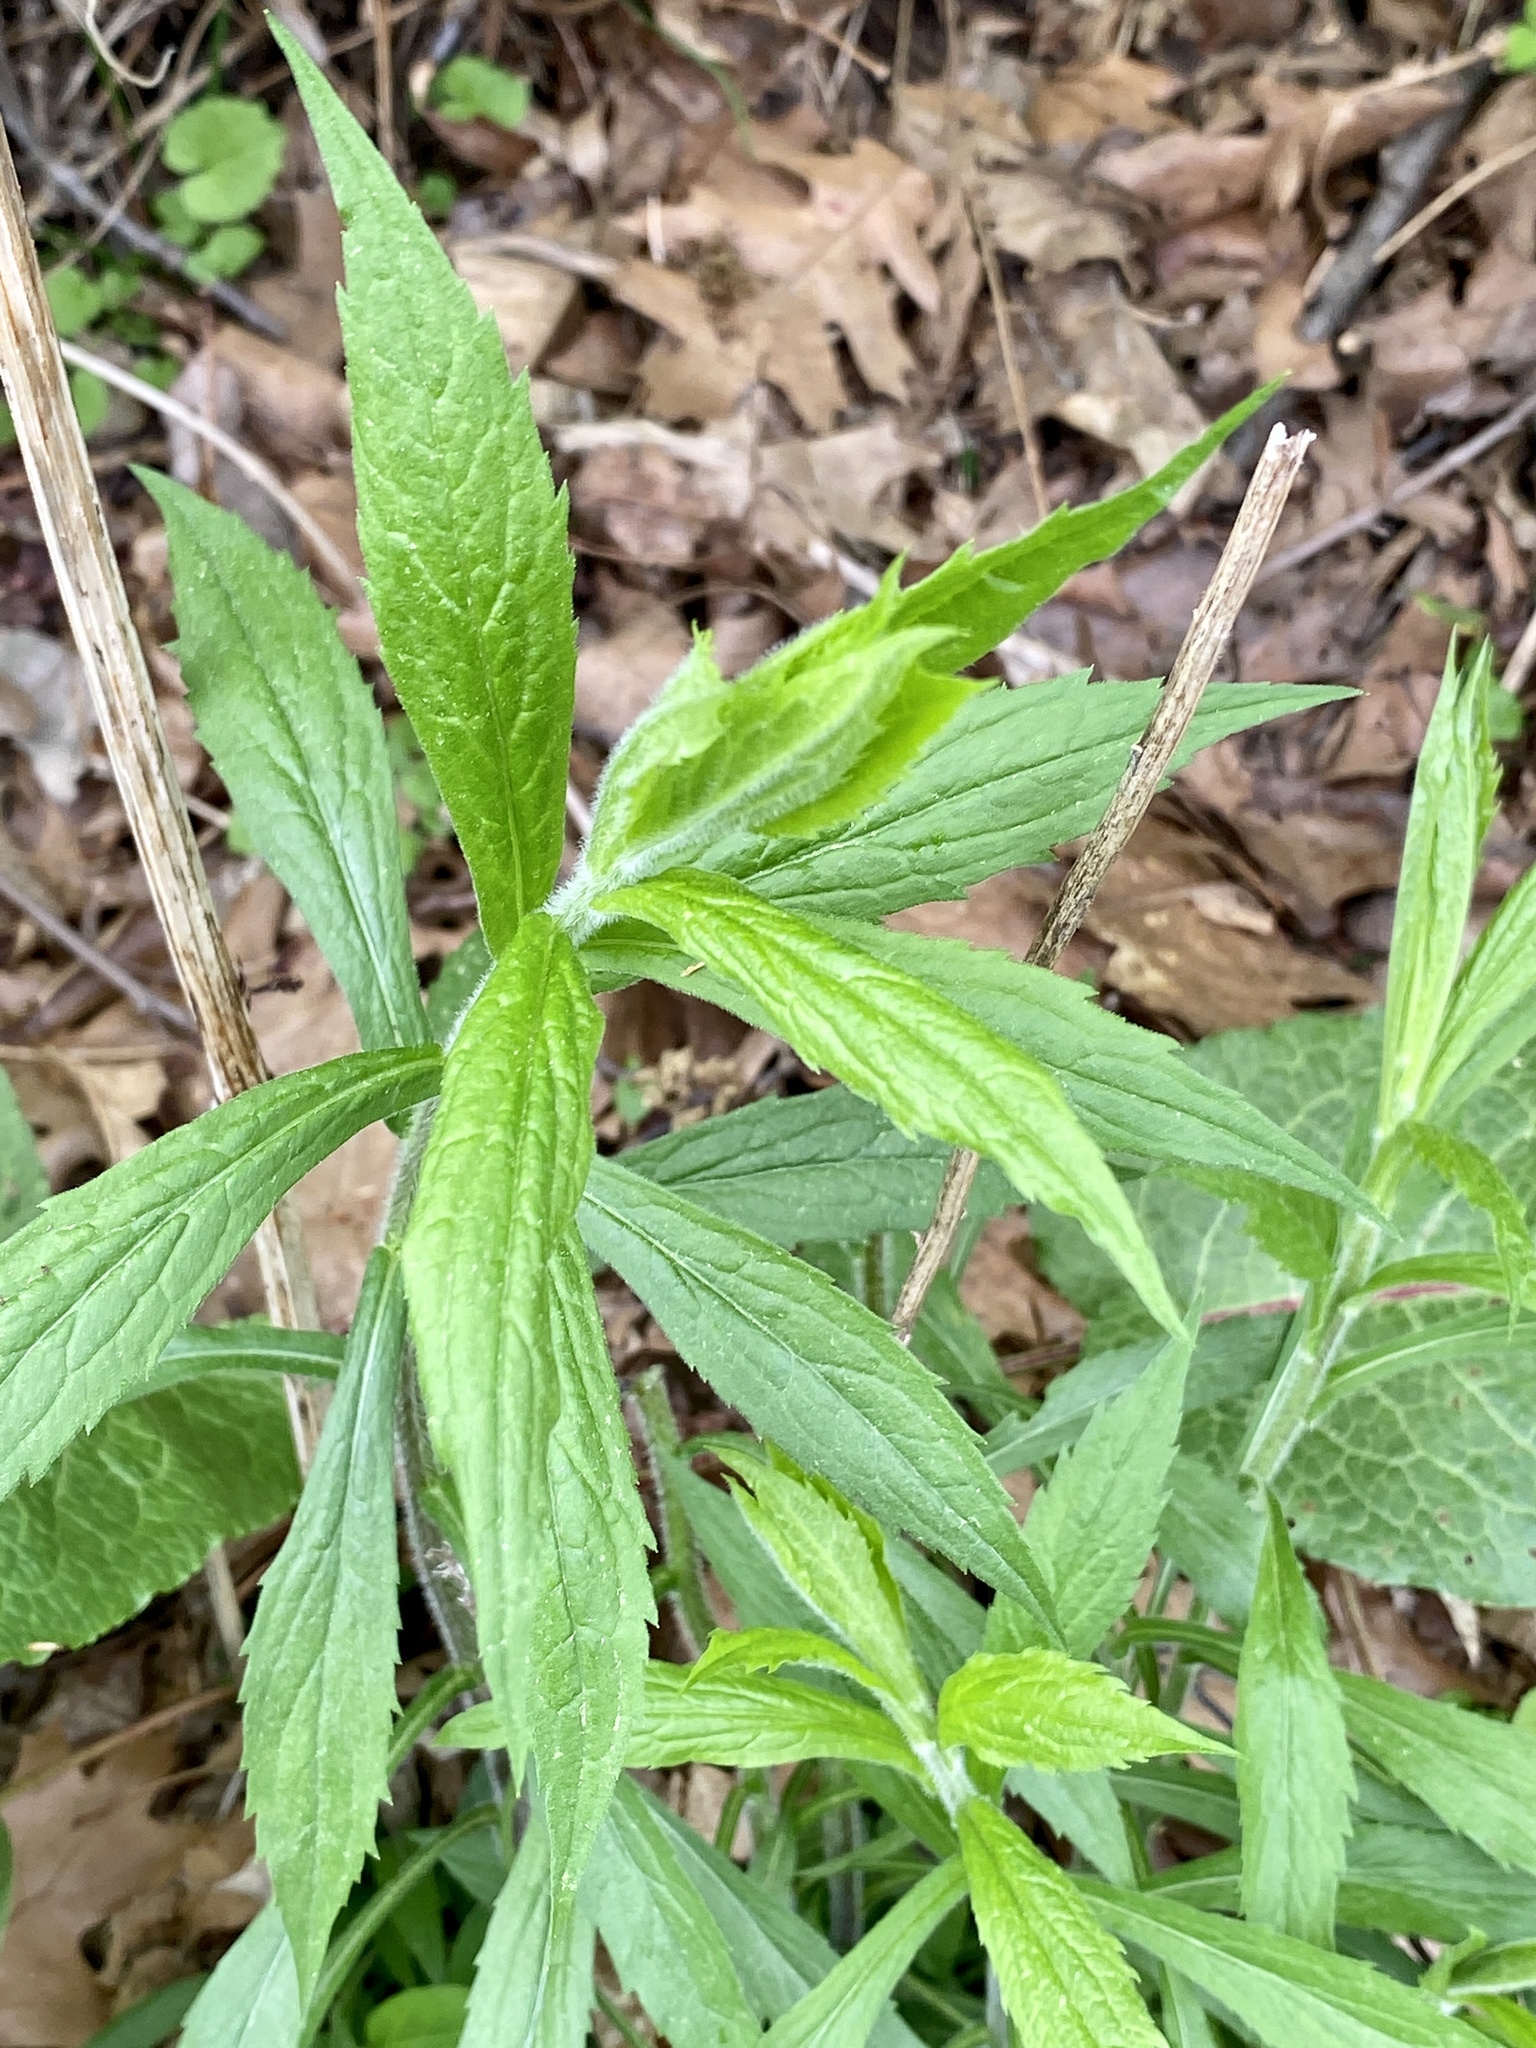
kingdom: Plantae
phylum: Tracheophyta
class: Magnoliopsida
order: Asterales
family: Asteraceae
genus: Solidago
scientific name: Solidago rugosa
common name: Rough-stemmed goldenrod
